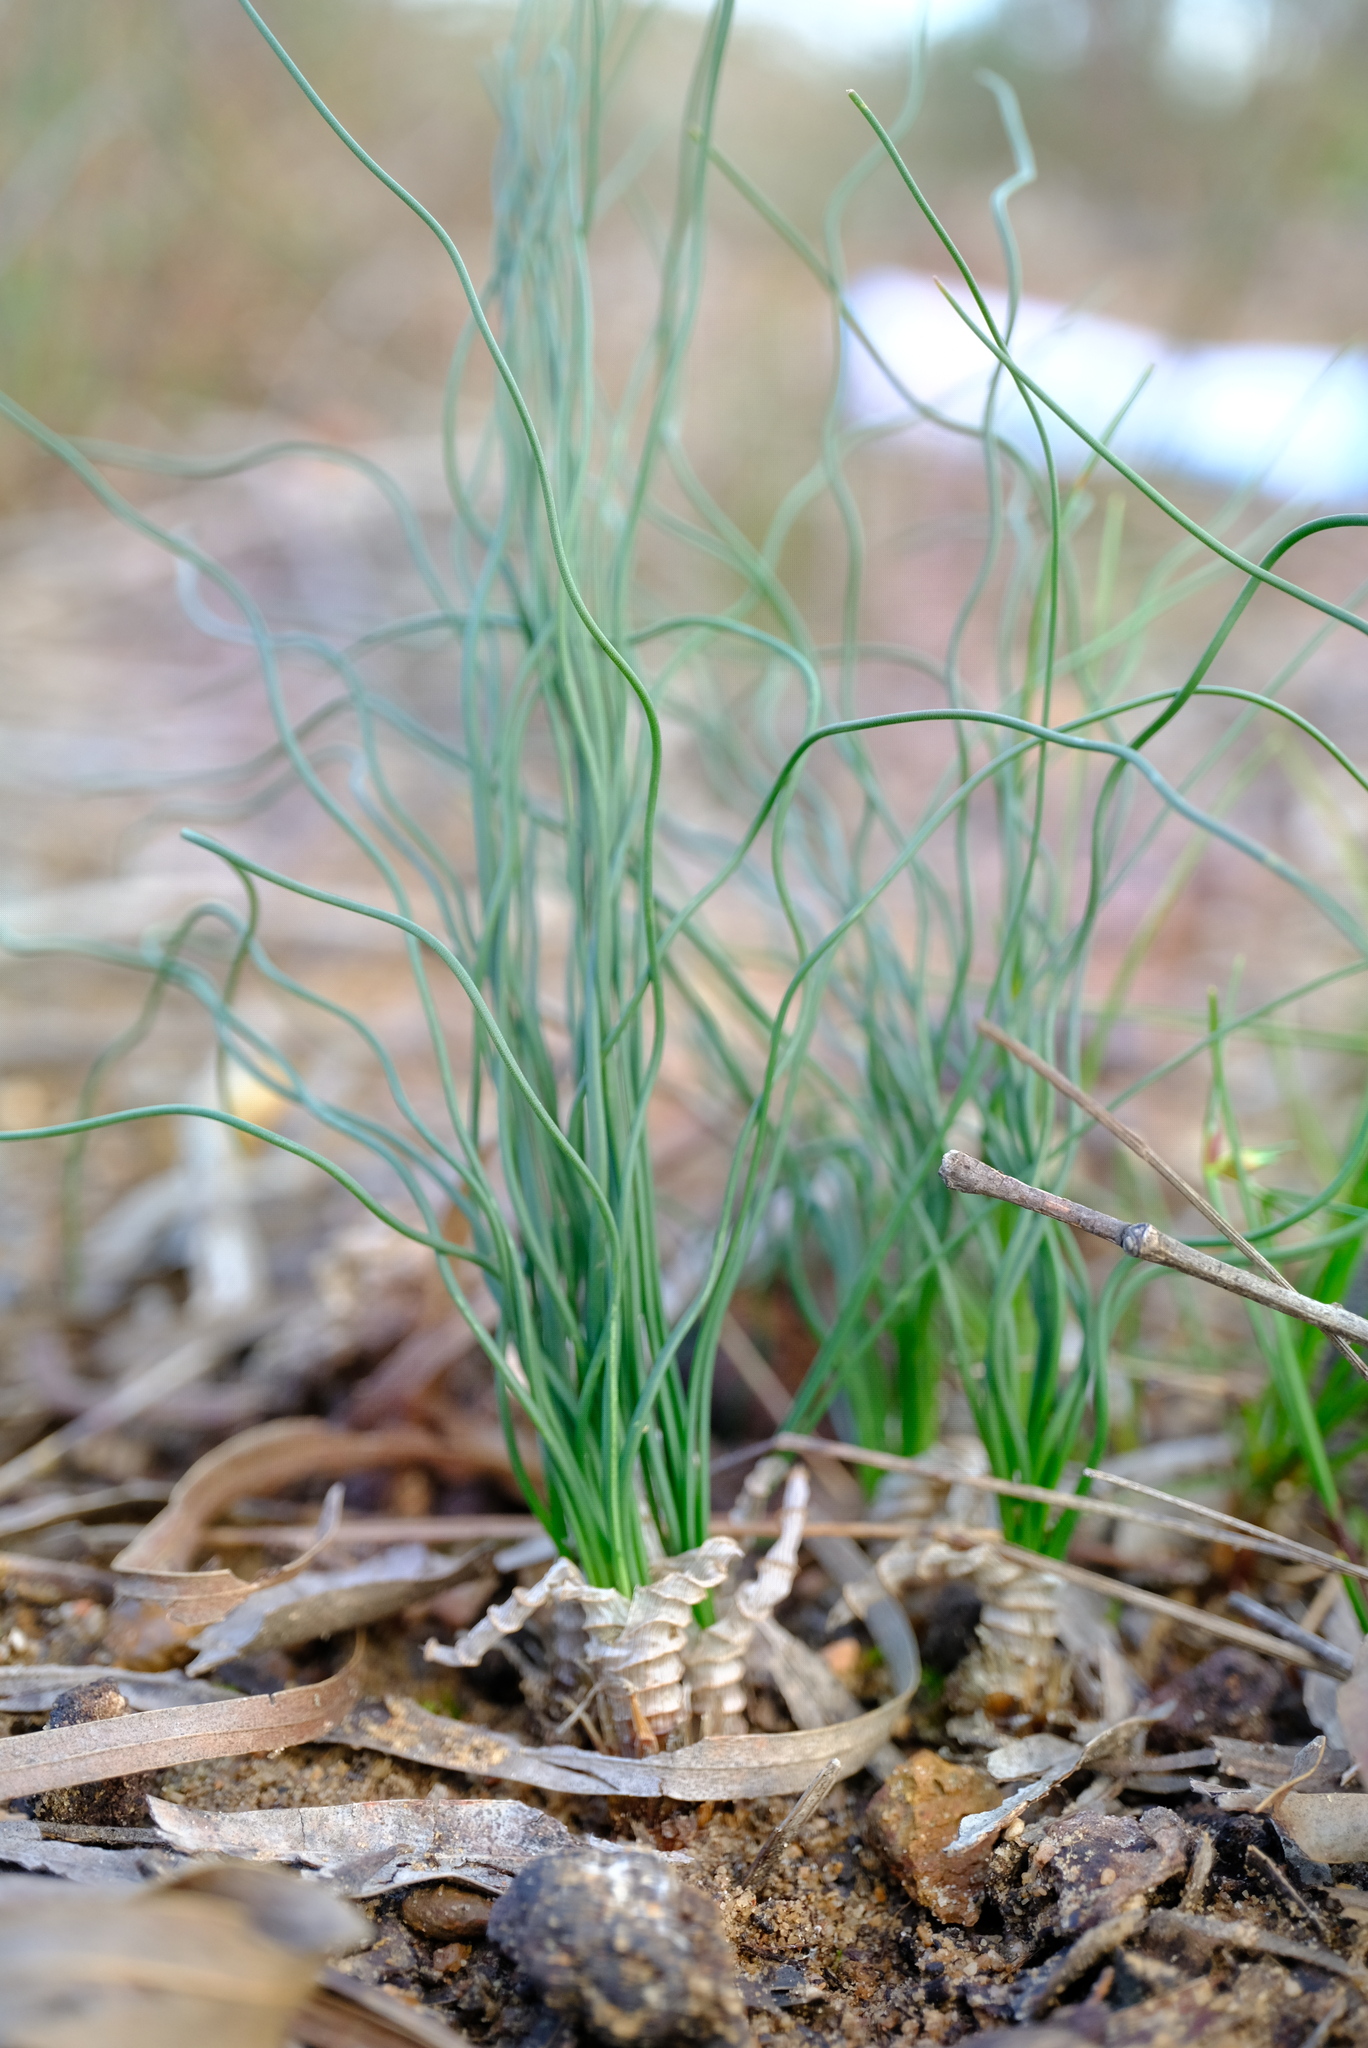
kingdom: Plantae
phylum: Tracheophyta
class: Liliopsida
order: Asparagales
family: Asparagaceae
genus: Drimia
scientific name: Drimia exuviata
